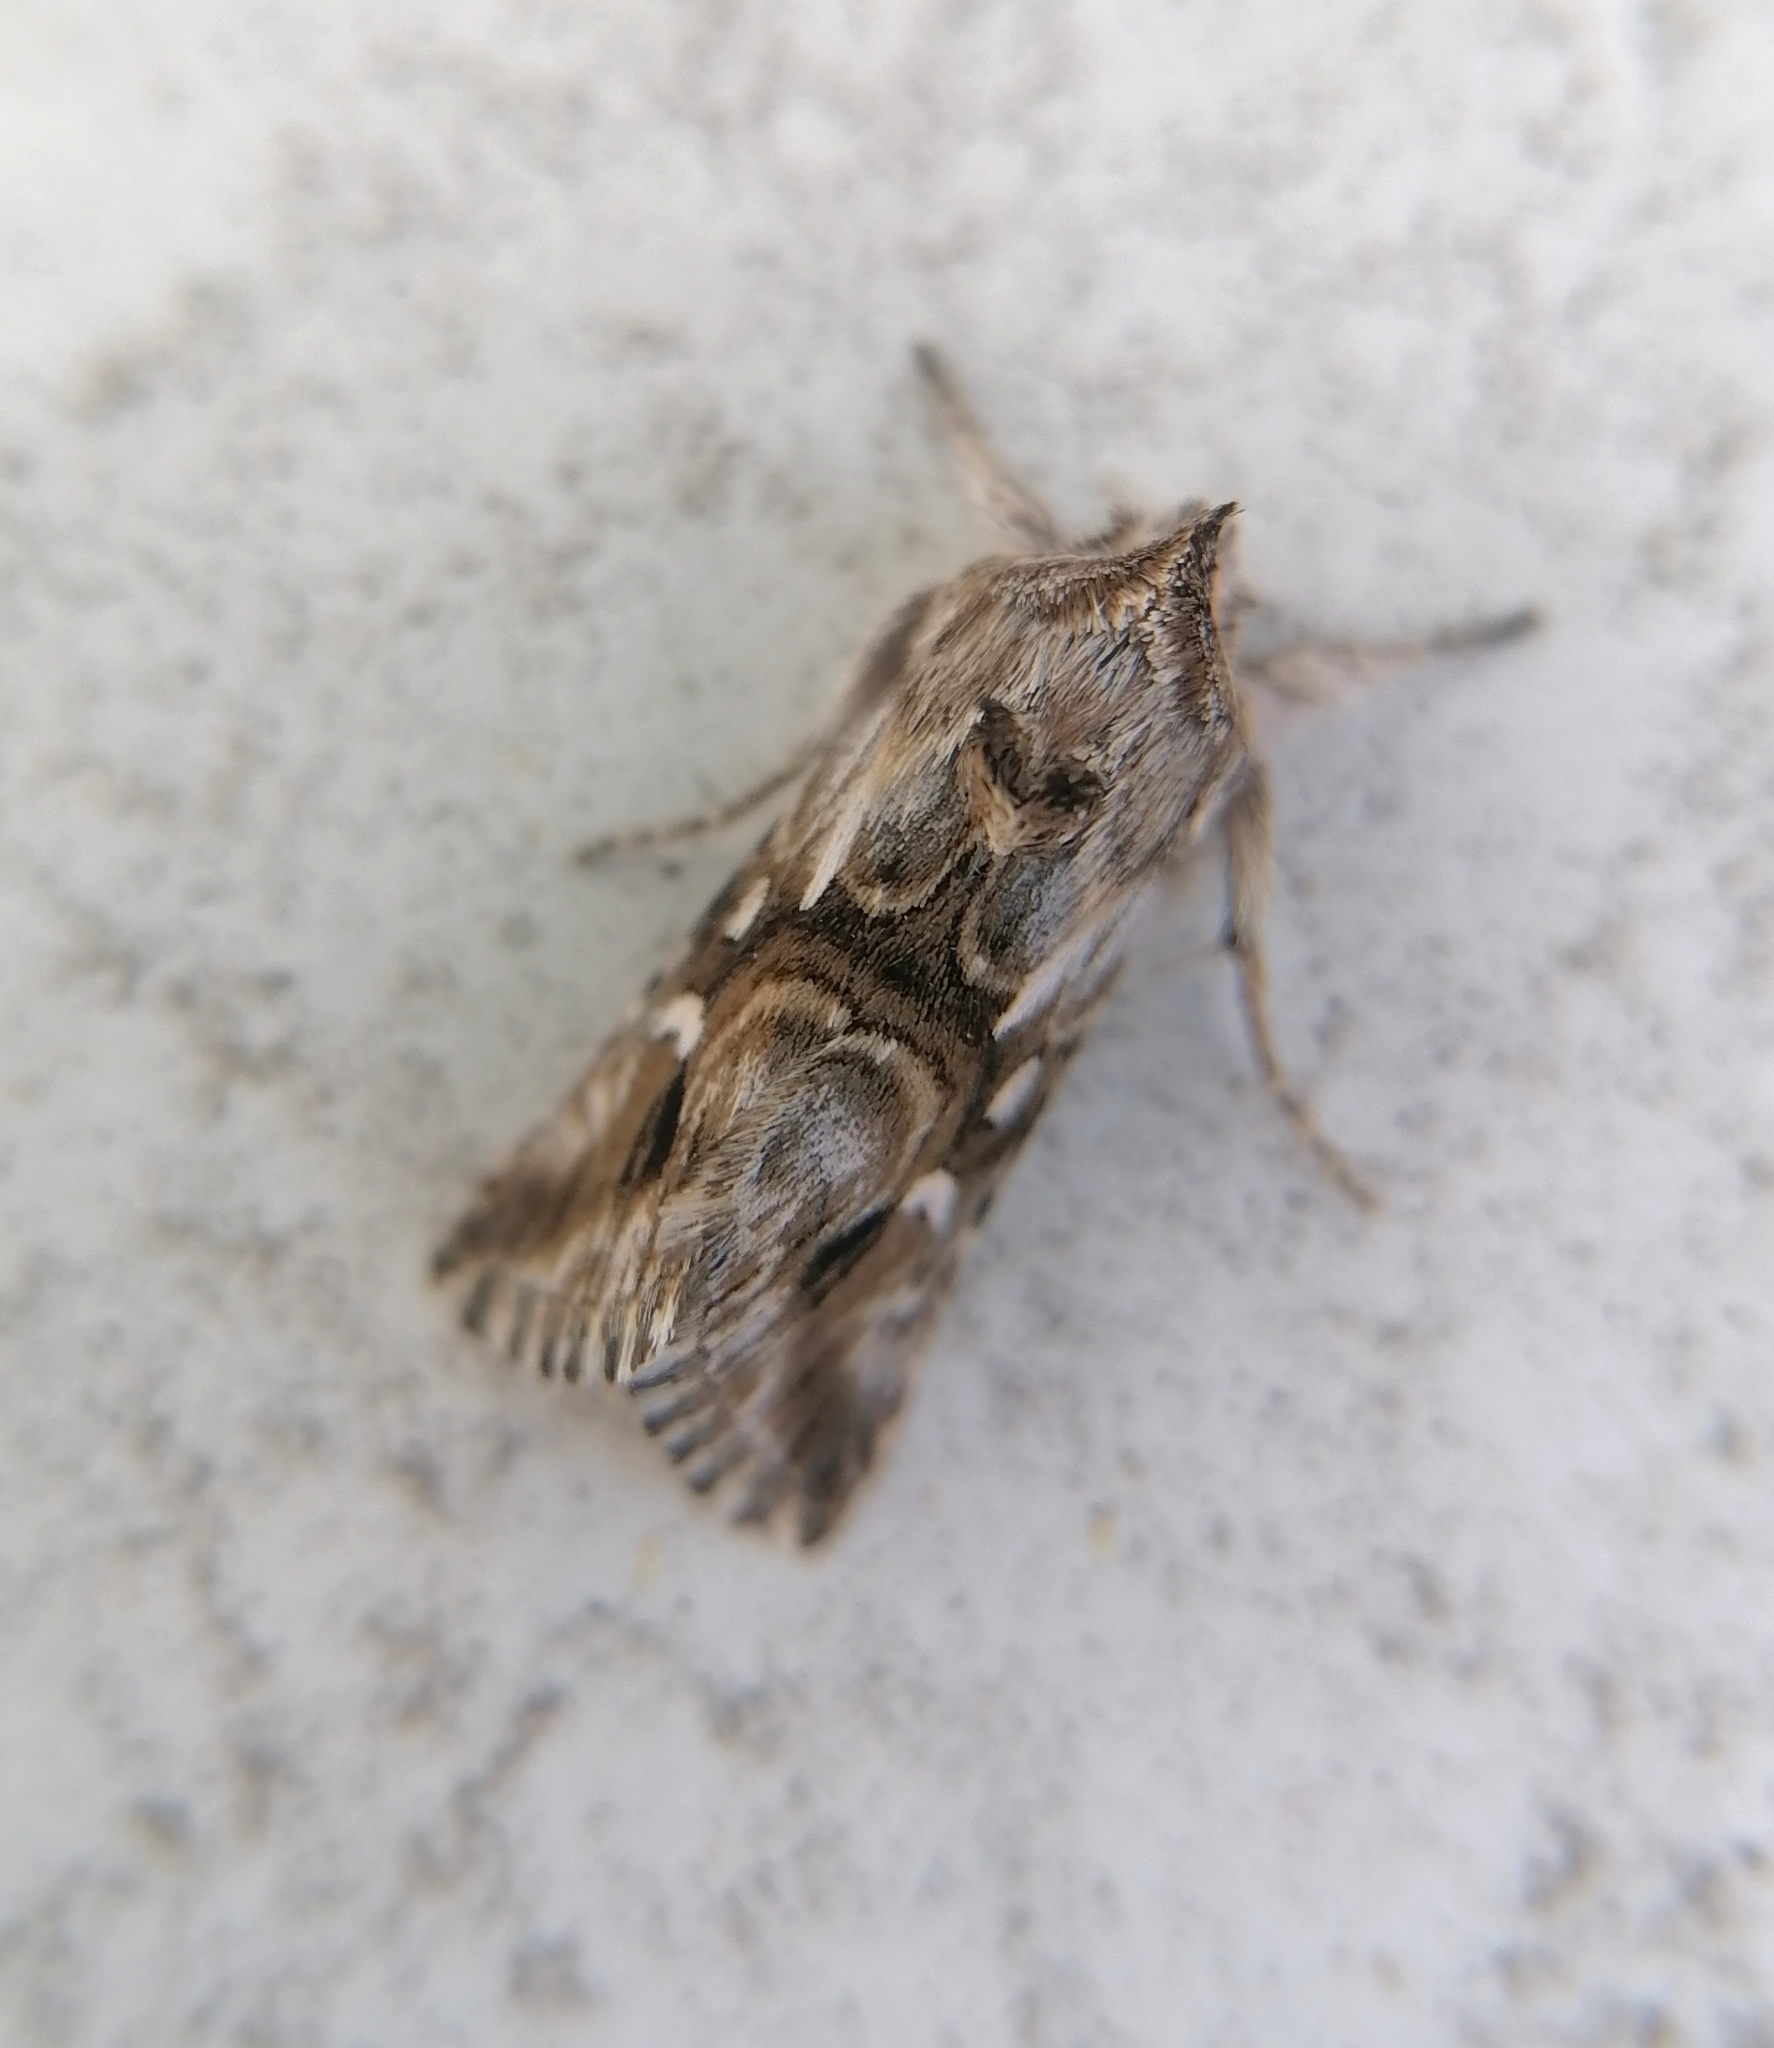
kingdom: Animalia
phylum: Arthropoda
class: Insecta
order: Lepidoptera
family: Noctuidae
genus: Calophasia
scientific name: Calophasia lunula
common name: Toadflax brocade
